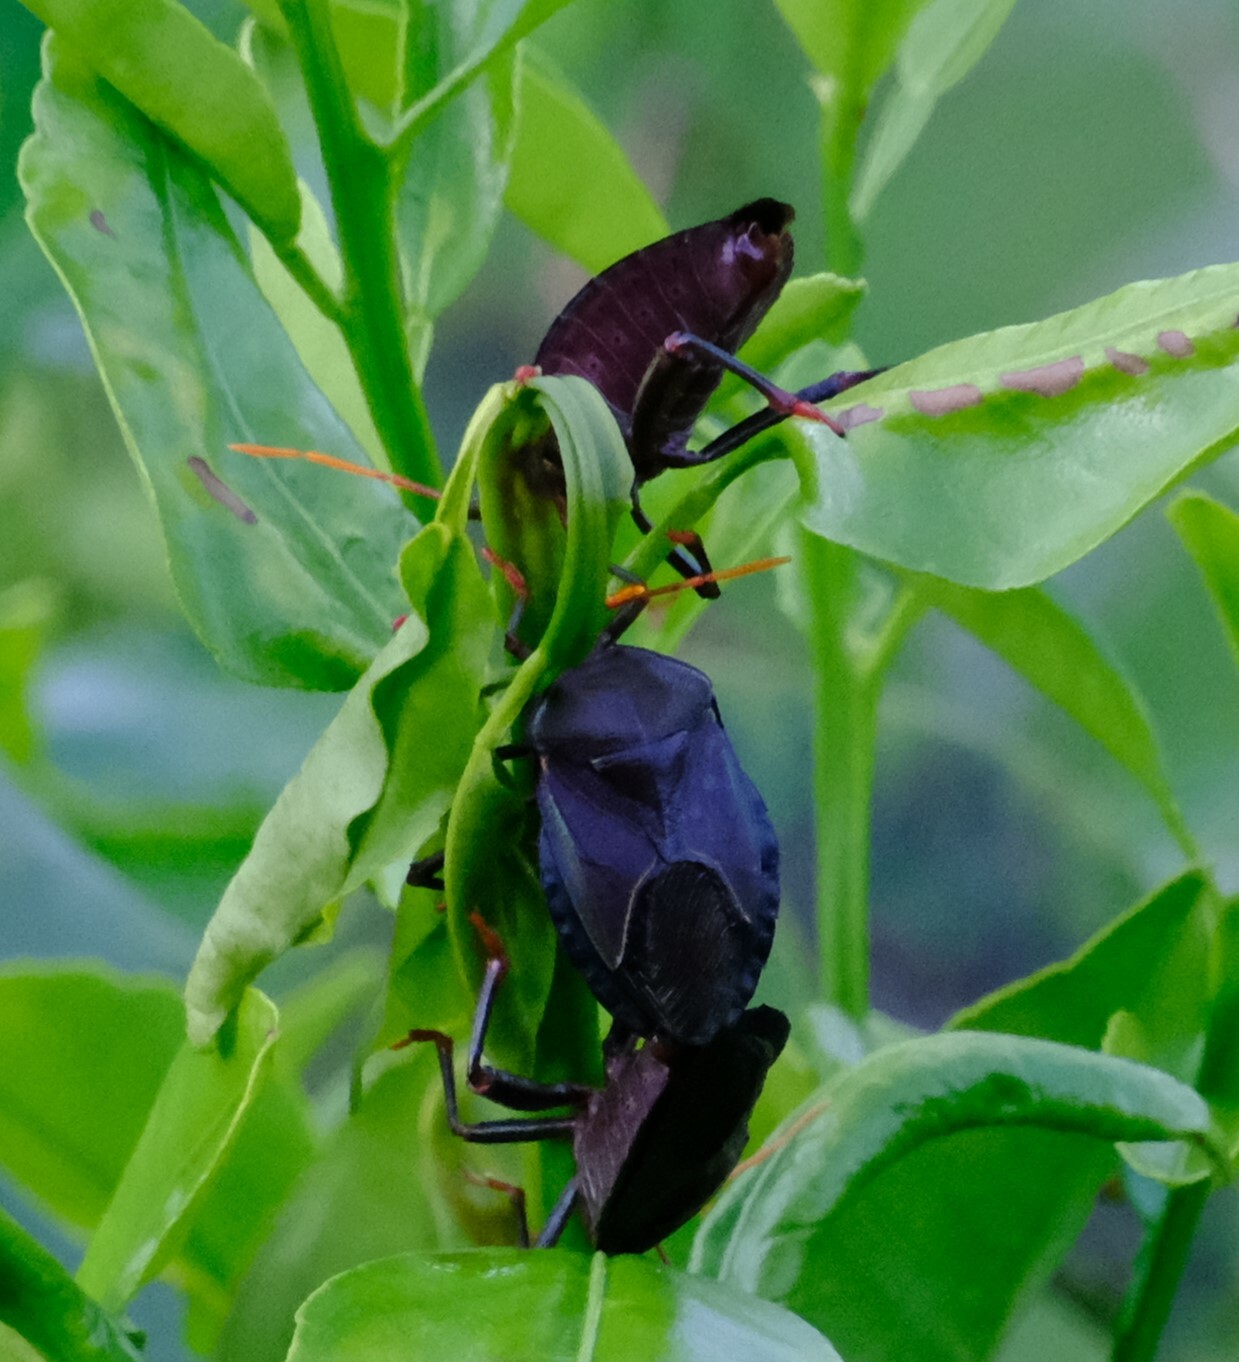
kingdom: Animalia
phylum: Arthropoda
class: Insecta
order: Hemiptera
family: Tessaratomidae
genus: Musgraveia
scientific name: Musgraveia sulciventris
